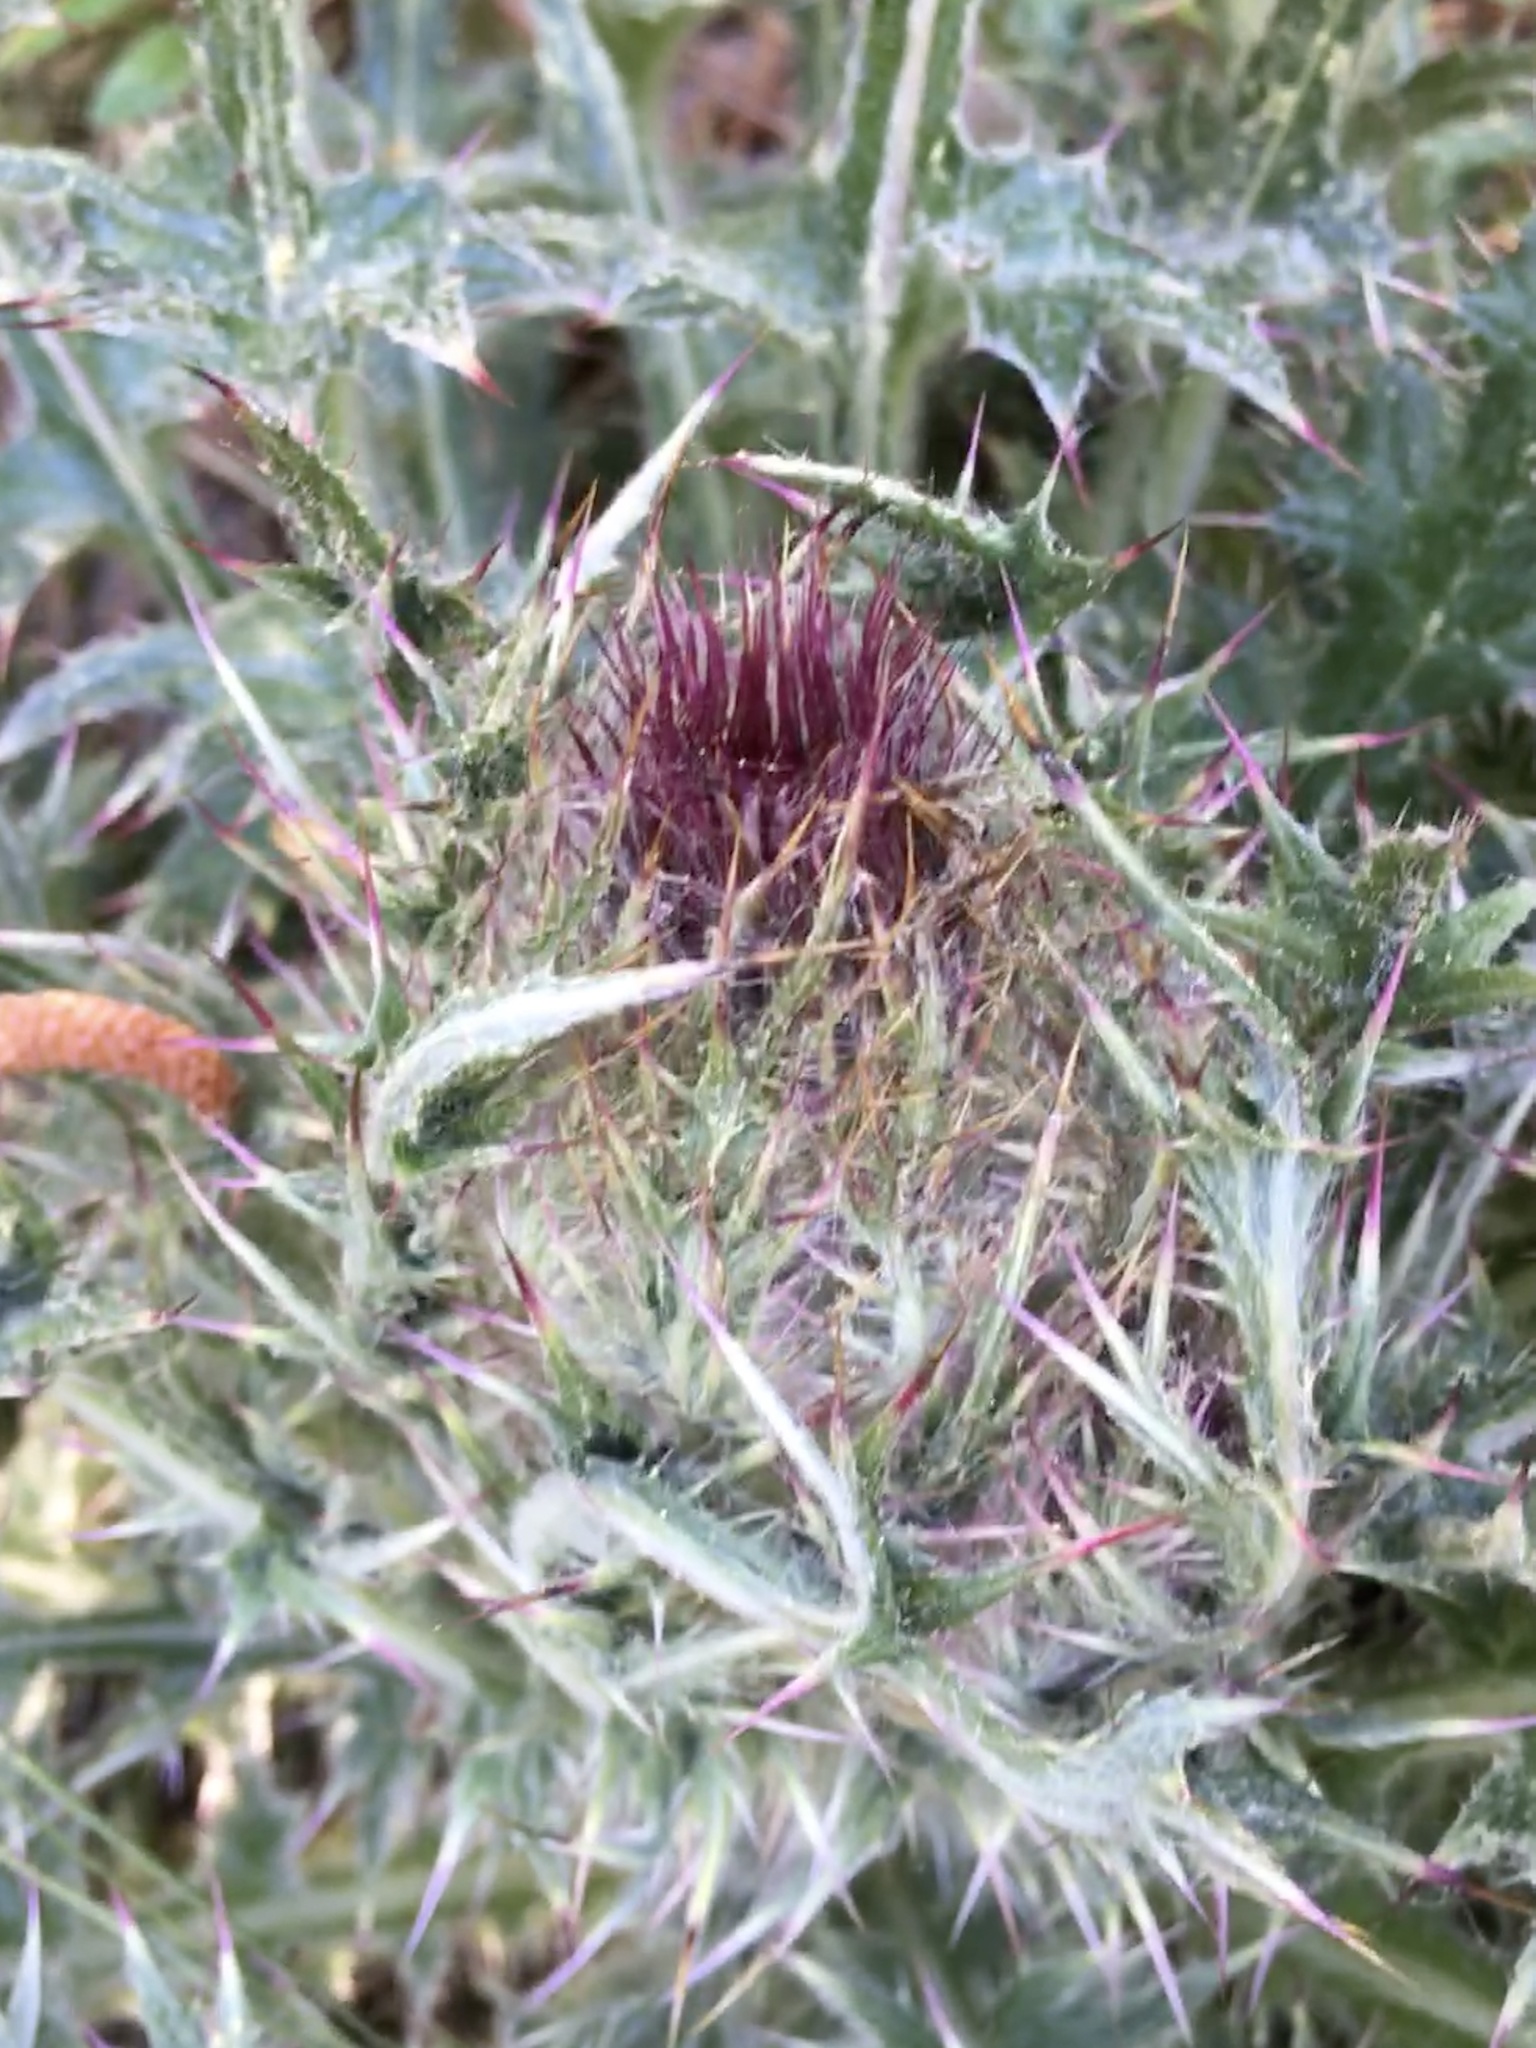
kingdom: Plantae
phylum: Tracheophyta
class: Magnoliopsida
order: Asterales
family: Asteraceae
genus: Cirsium
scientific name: Cirsium horridulum
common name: Bristly thistle
